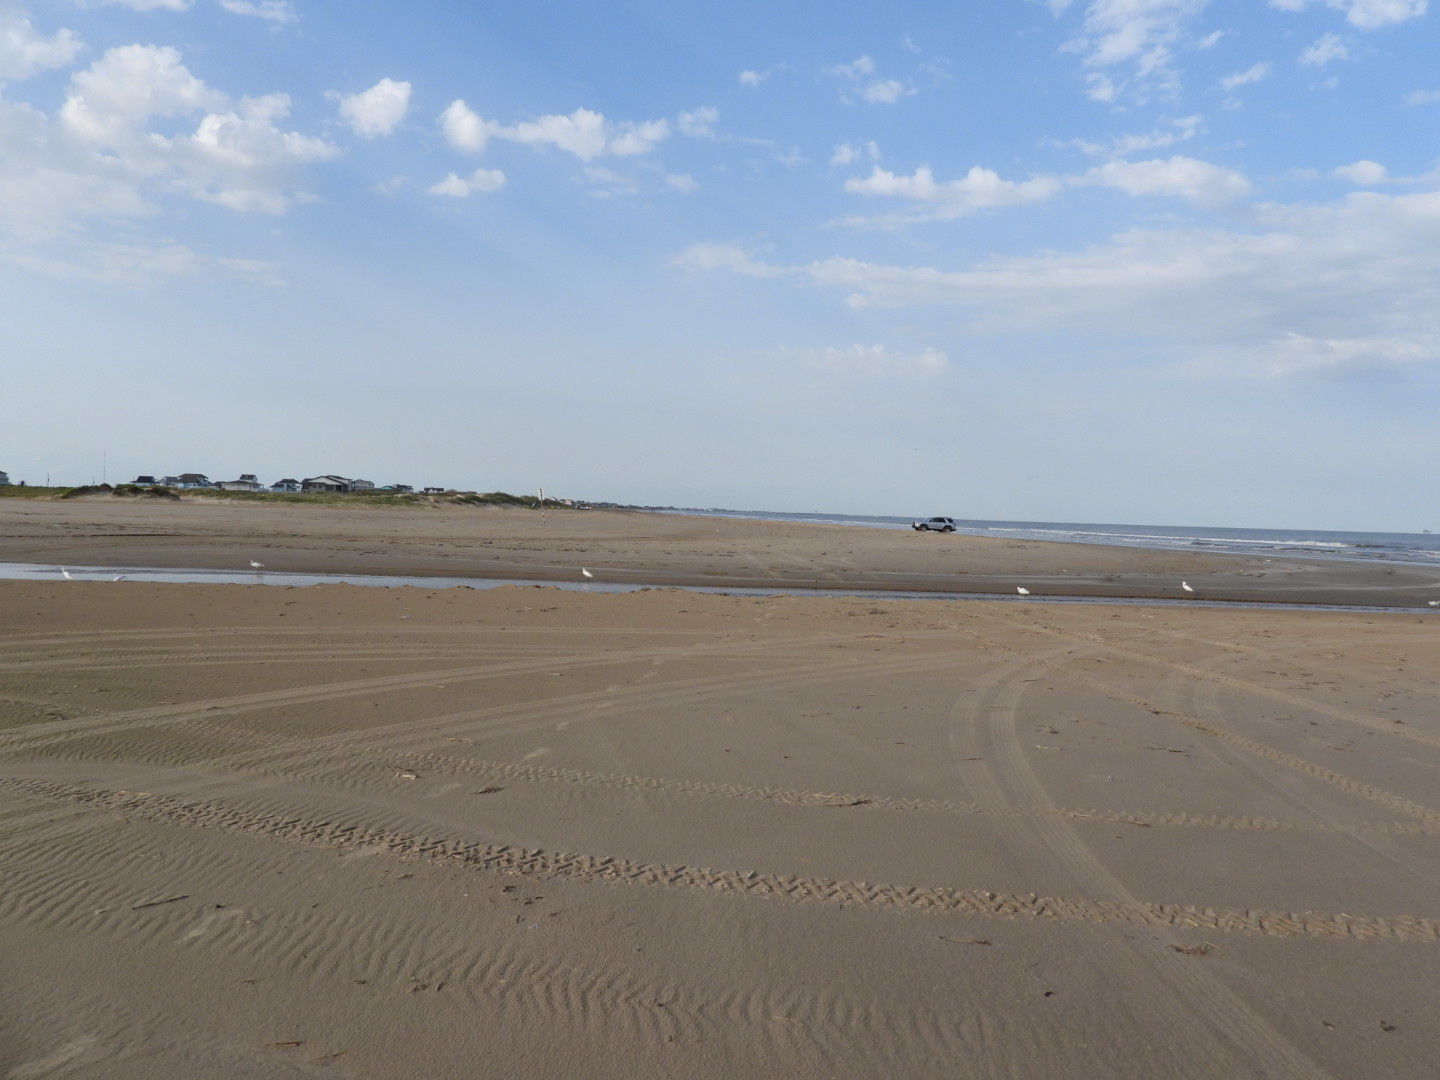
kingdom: Animalia
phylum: Chordata
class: Aves
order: Pelecaniformes
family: Ardeidae
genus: Egretta
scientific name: Egretta thula
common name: Snowy egret
